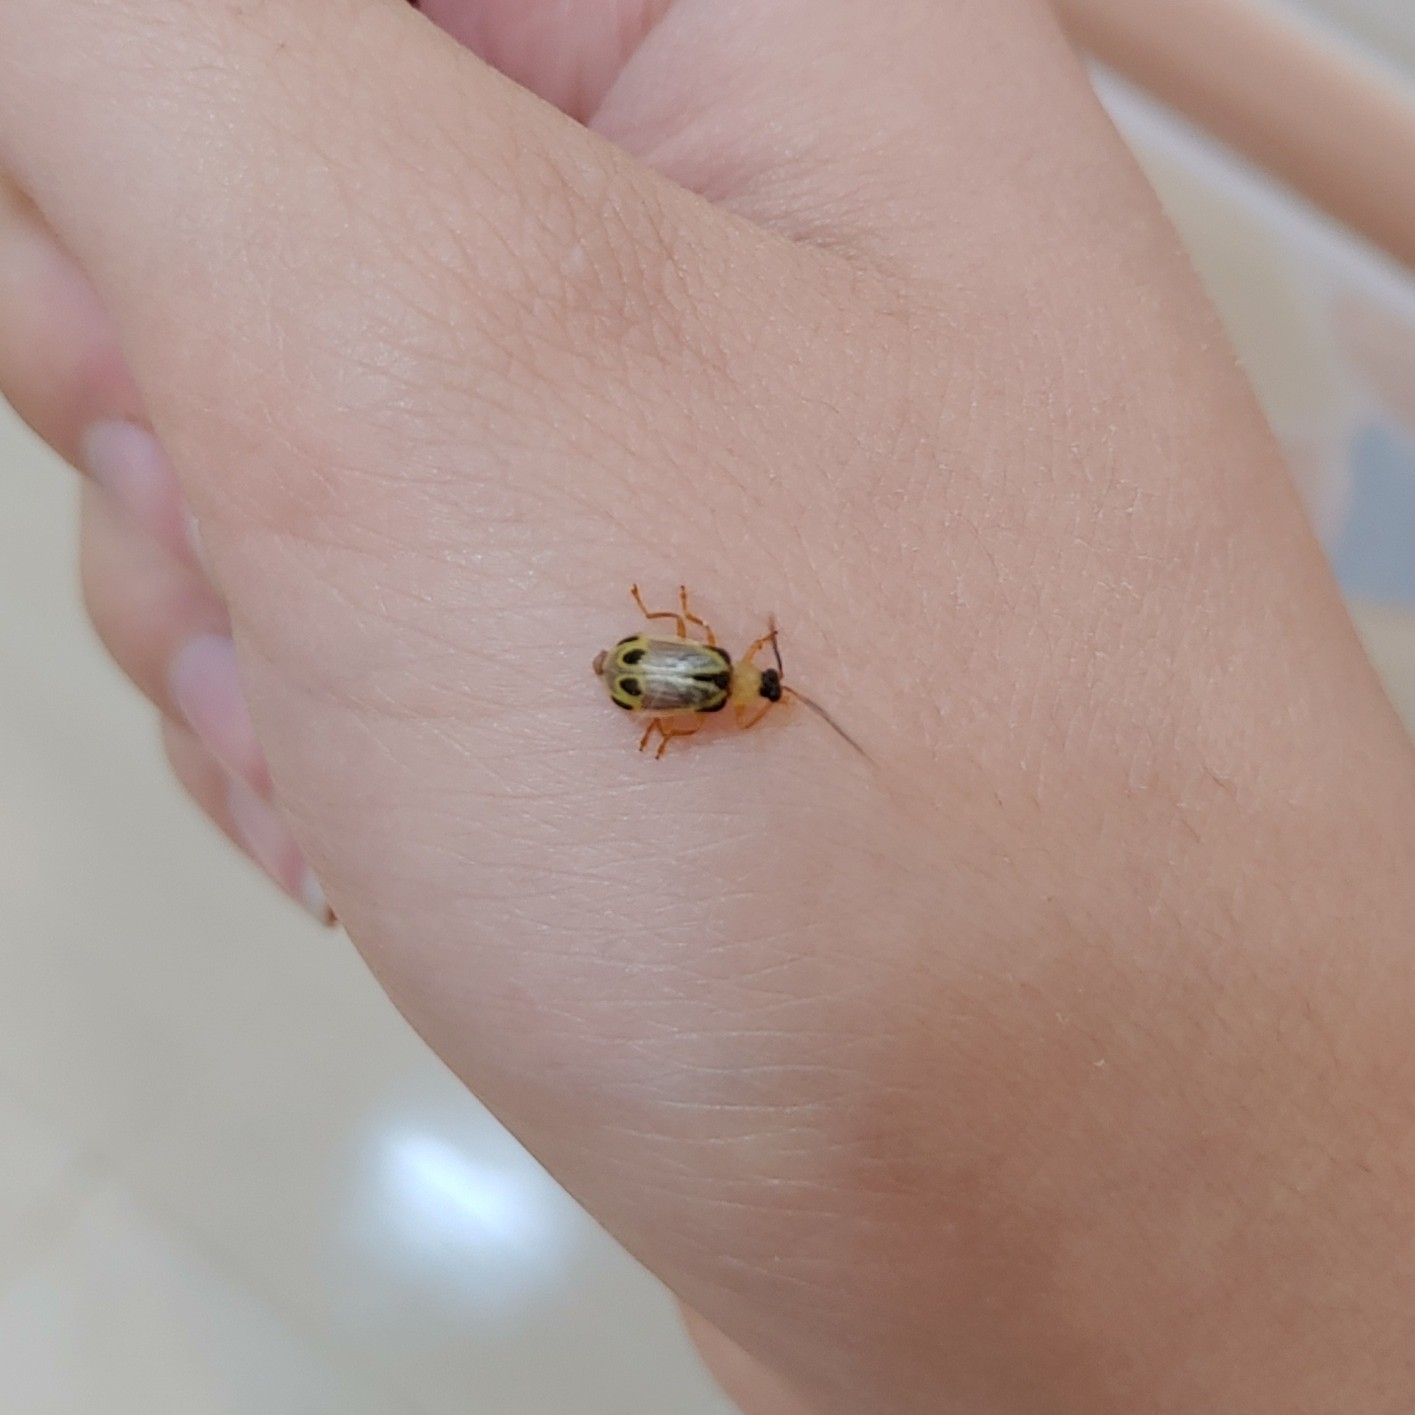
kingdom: Animalia
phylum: Arthropoda
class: Insecta
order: Coleoptera
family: Chrysomelidae
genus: Diabrotica
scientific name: Diabrotica
